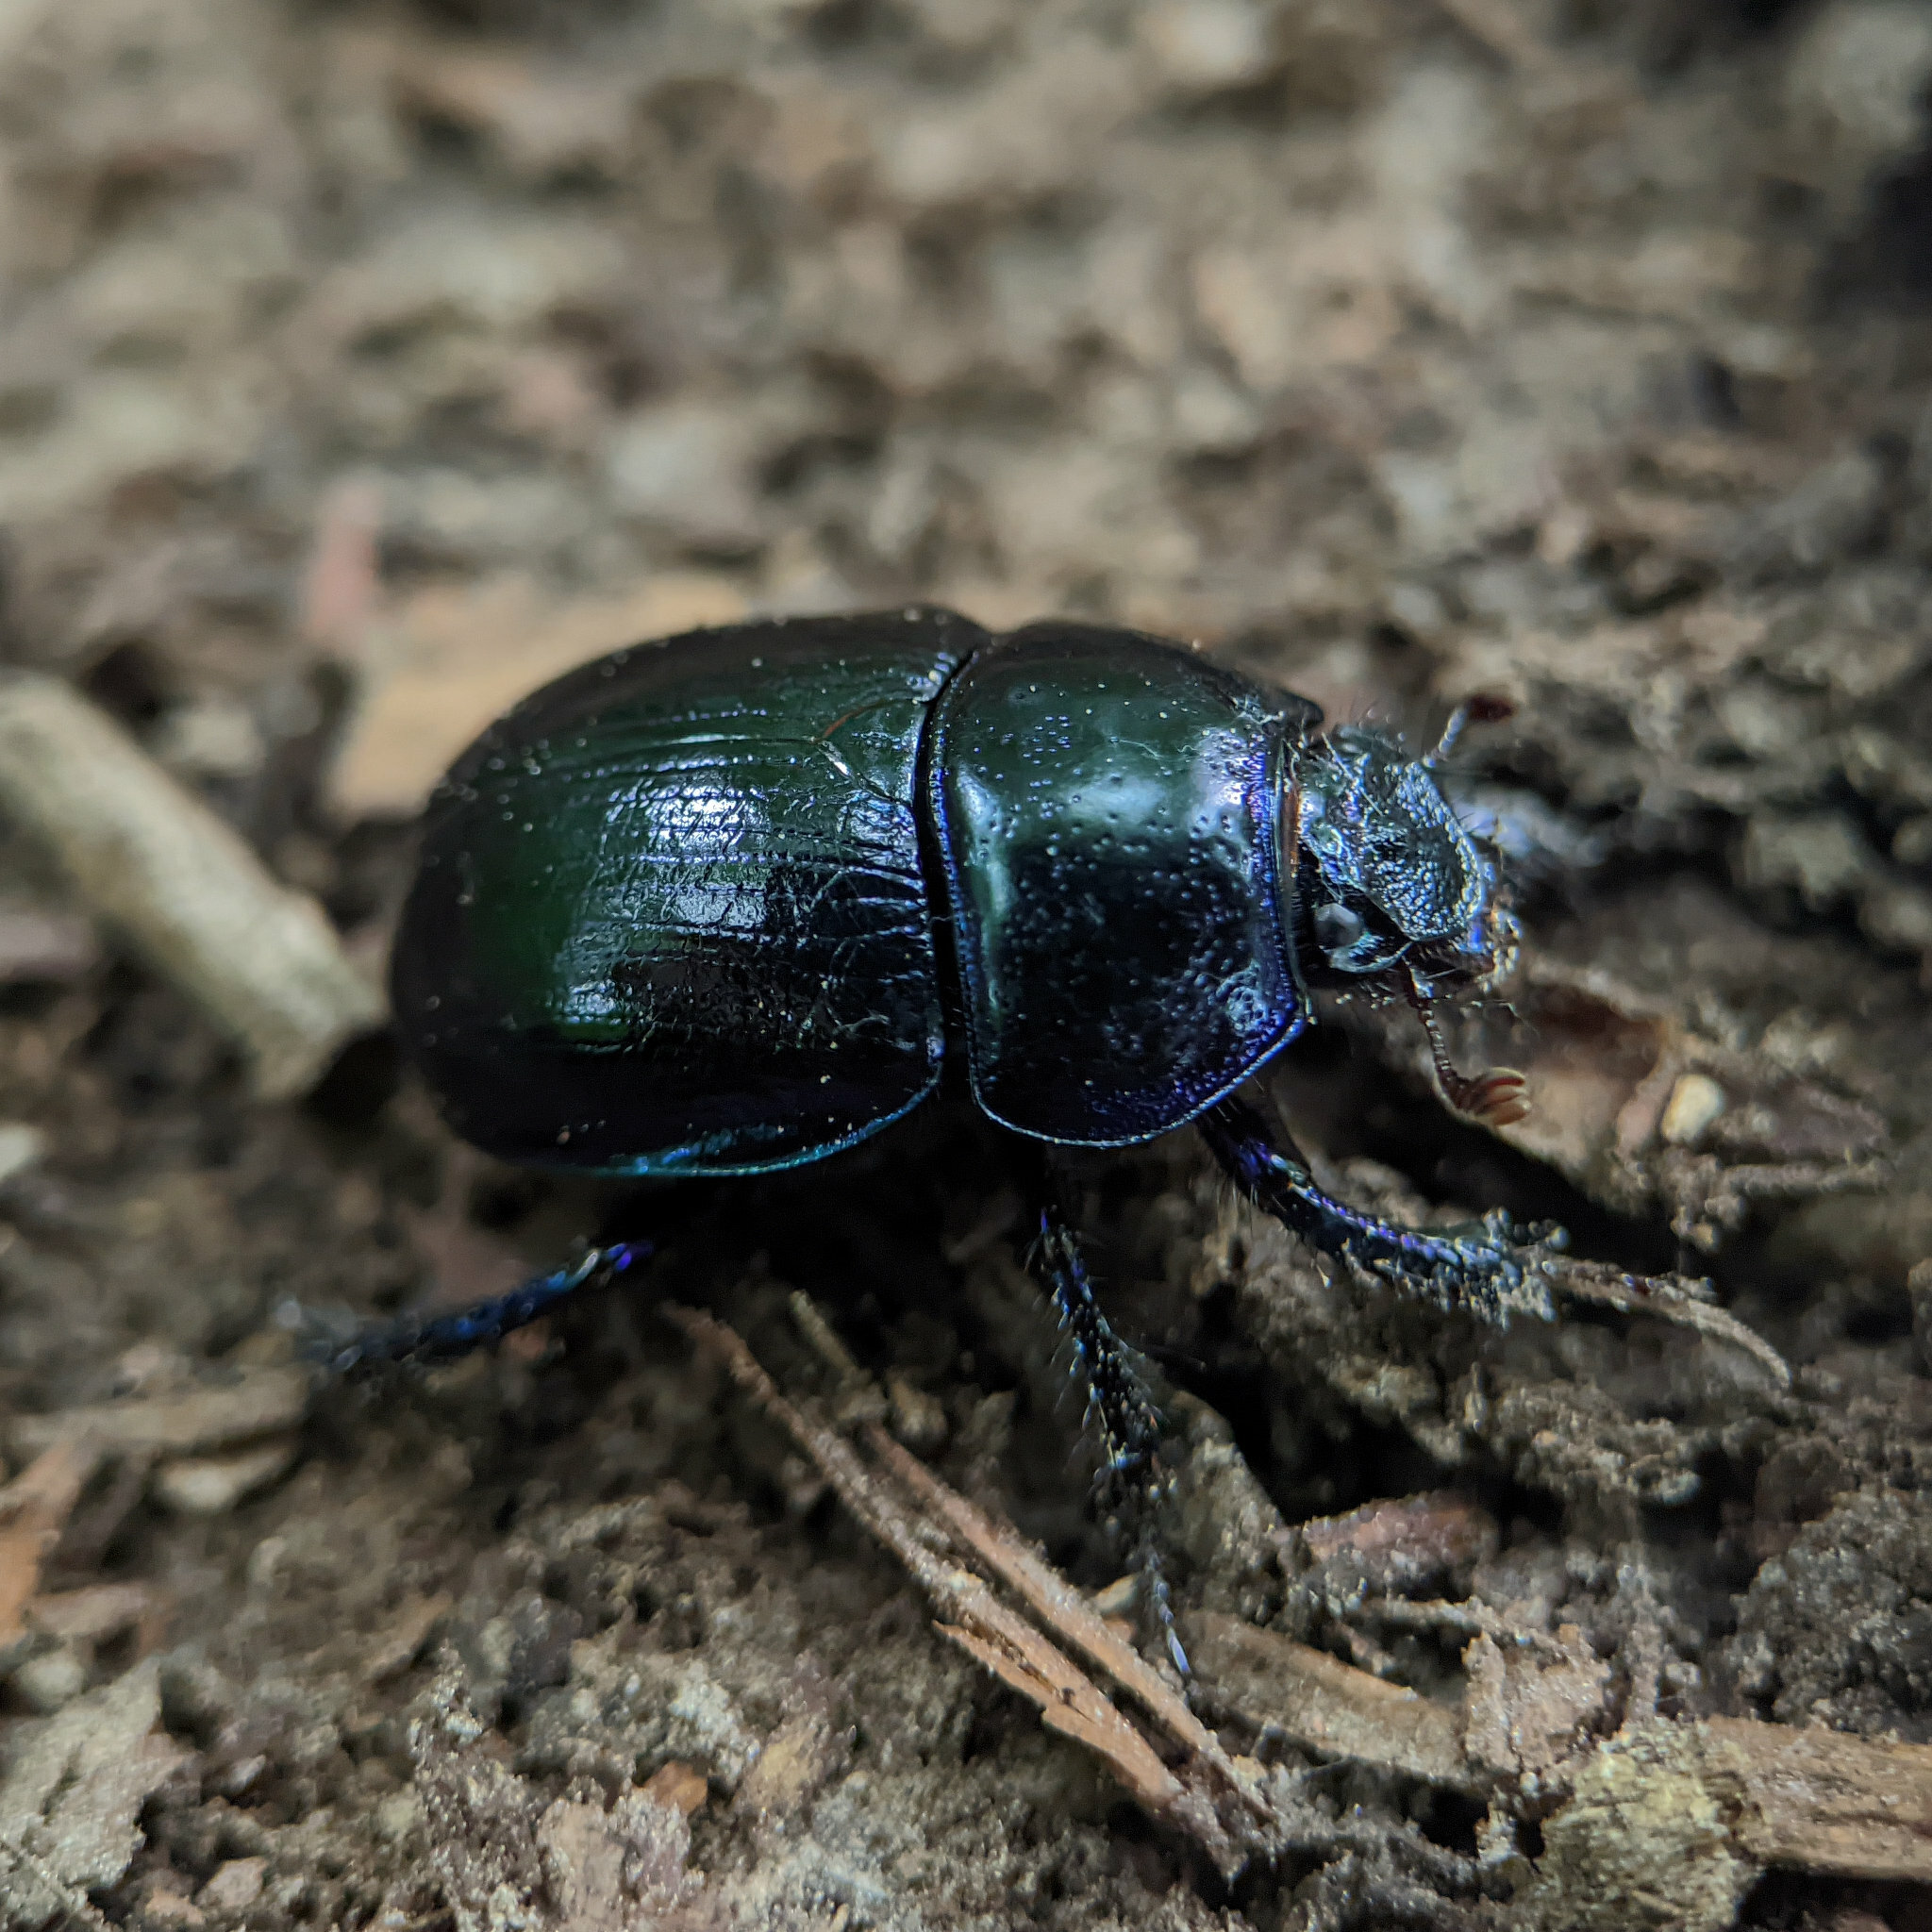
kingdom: Animalia
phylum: Arthropoda
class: Insecta
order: Coleoptera
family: Geotrupidae
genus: Anoplotrupes
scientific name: Anoplotrupes stercorosus
